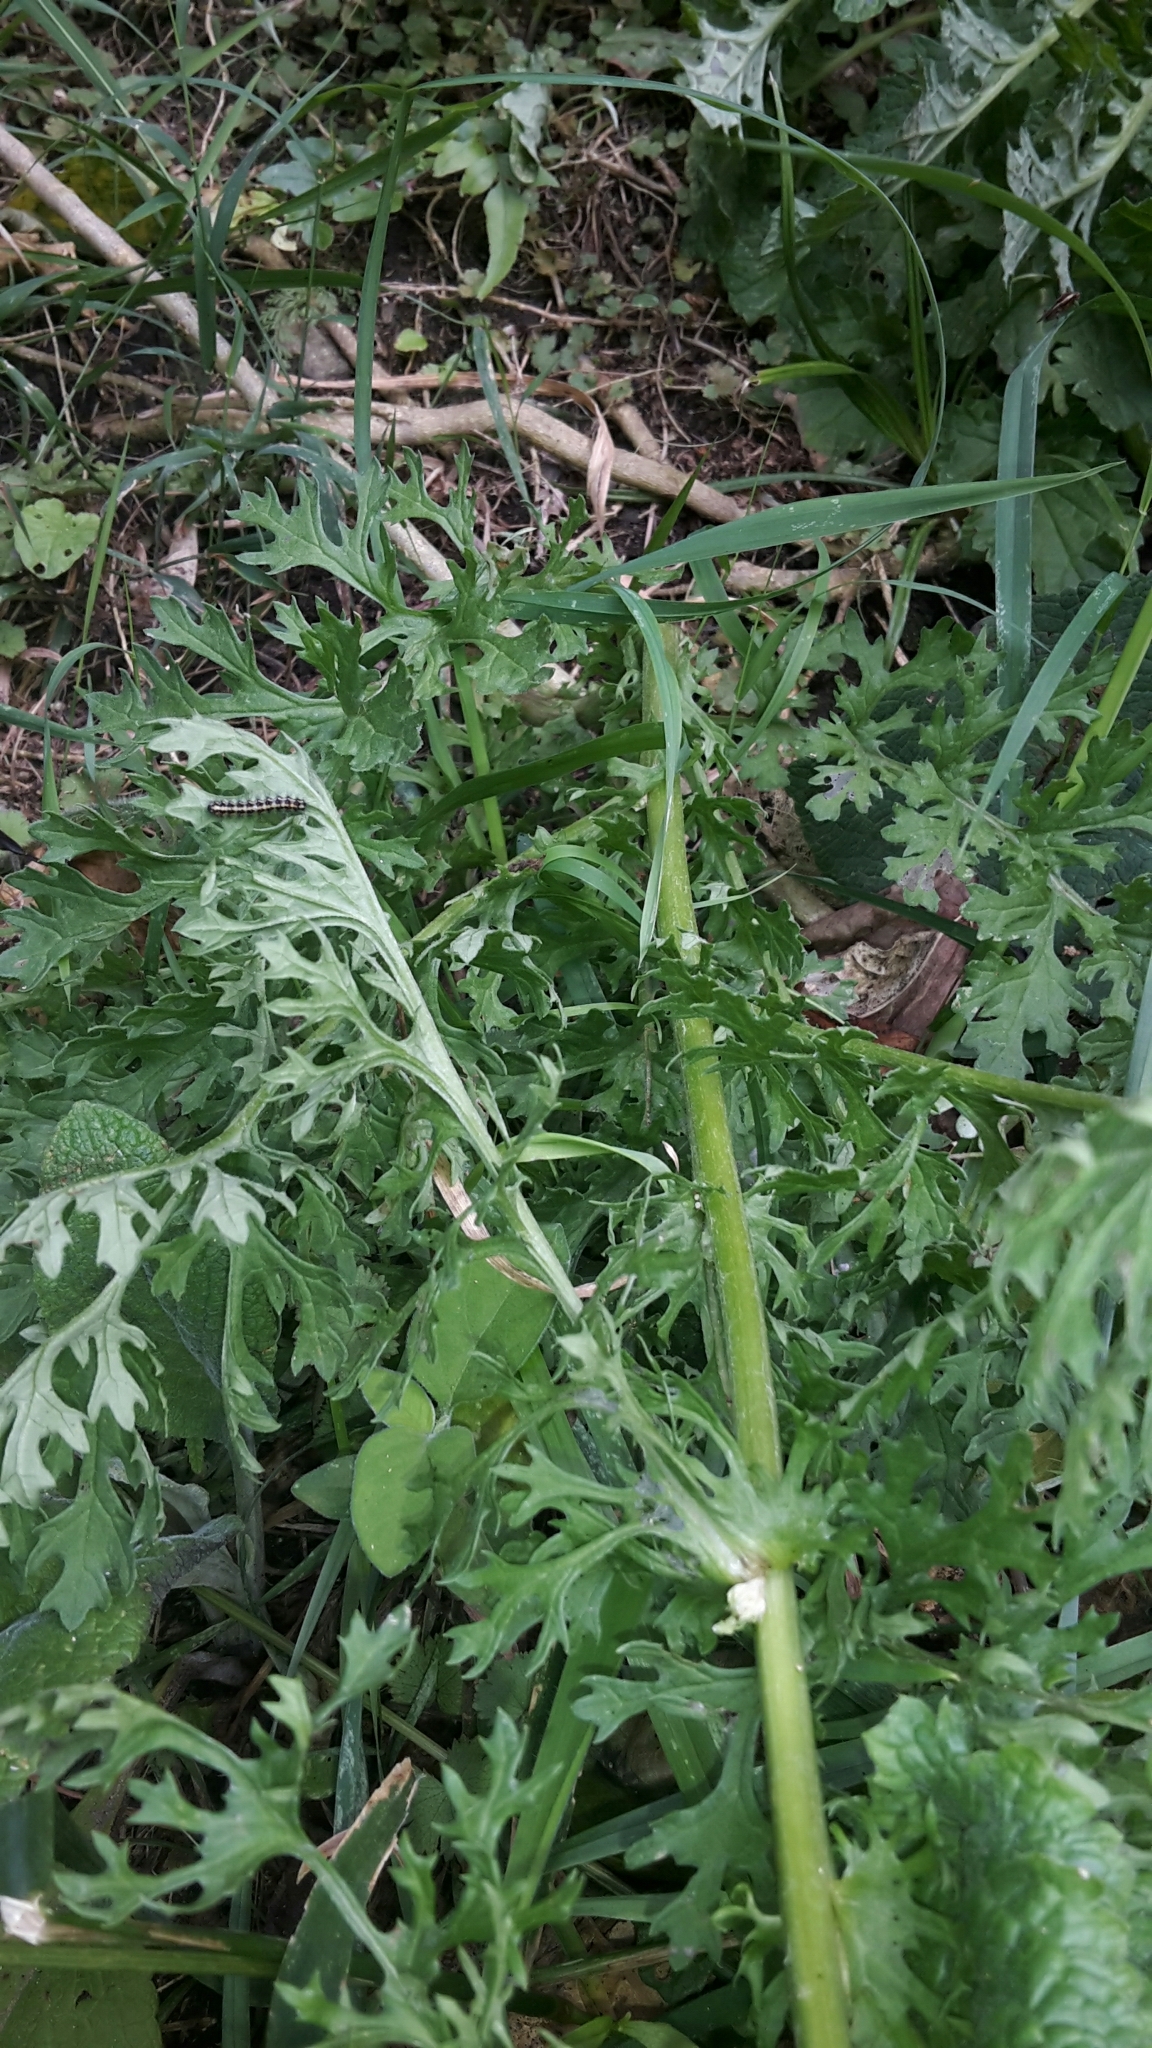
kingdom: Plantae
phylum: Tracheophyta
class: Magnoliopsida
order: Asterales
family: Asteraceae
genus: Jacobaea
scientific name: Jacobaea vulgaris
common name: Stinking willie
